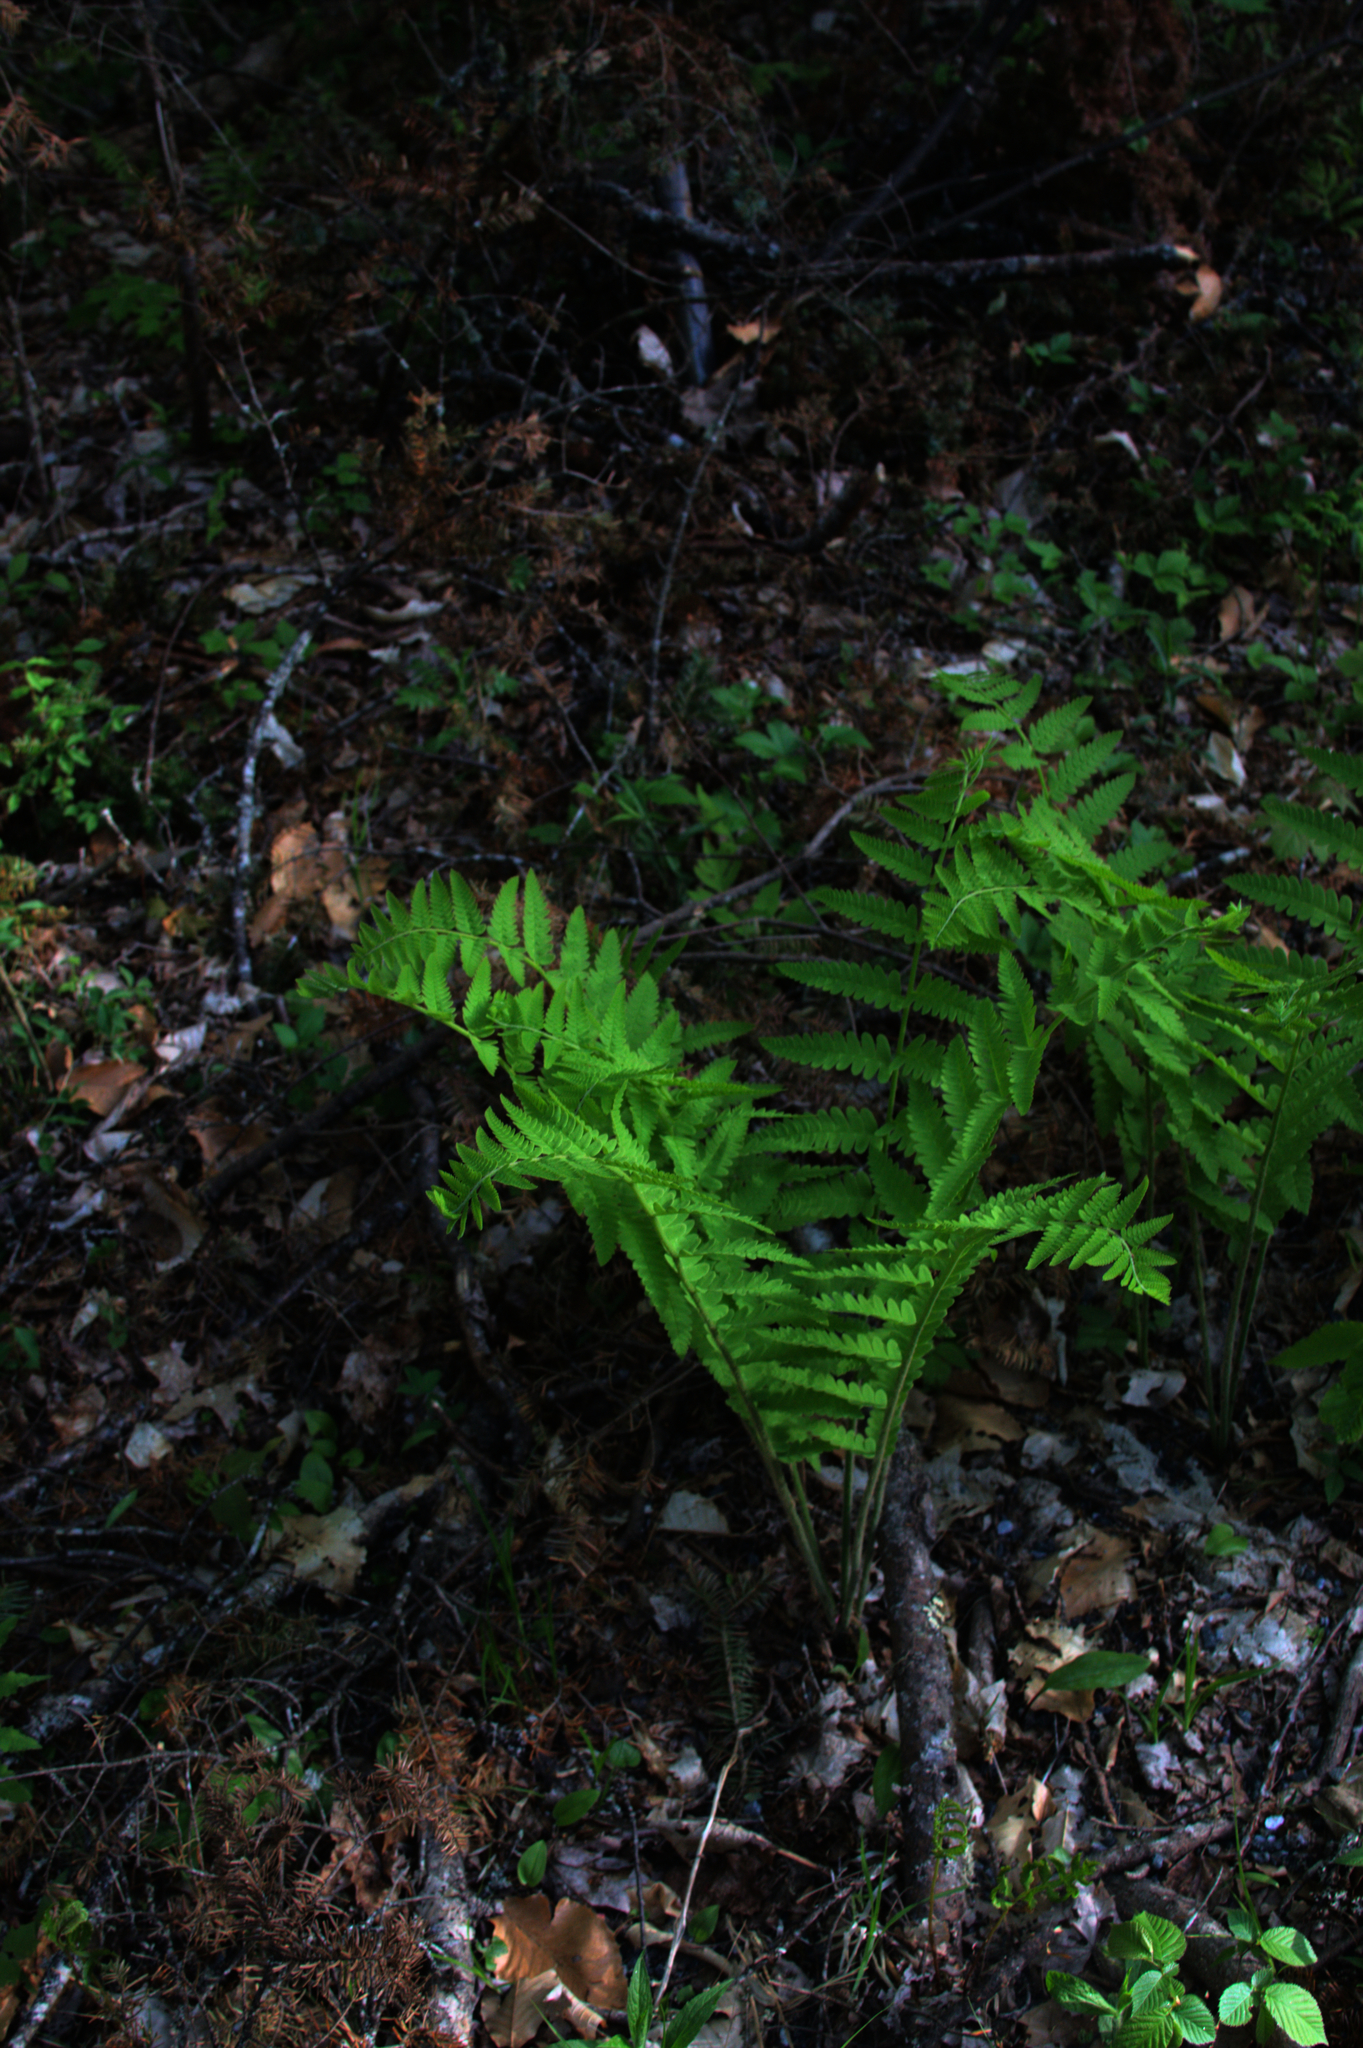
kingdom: Plantae
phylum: Tracheophyta
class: Polypodiopsida
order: Osmundales
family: Osmundaceae
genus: Claytosmunda
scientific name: Claytosmunda claytoniana
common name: Clayton's fern
